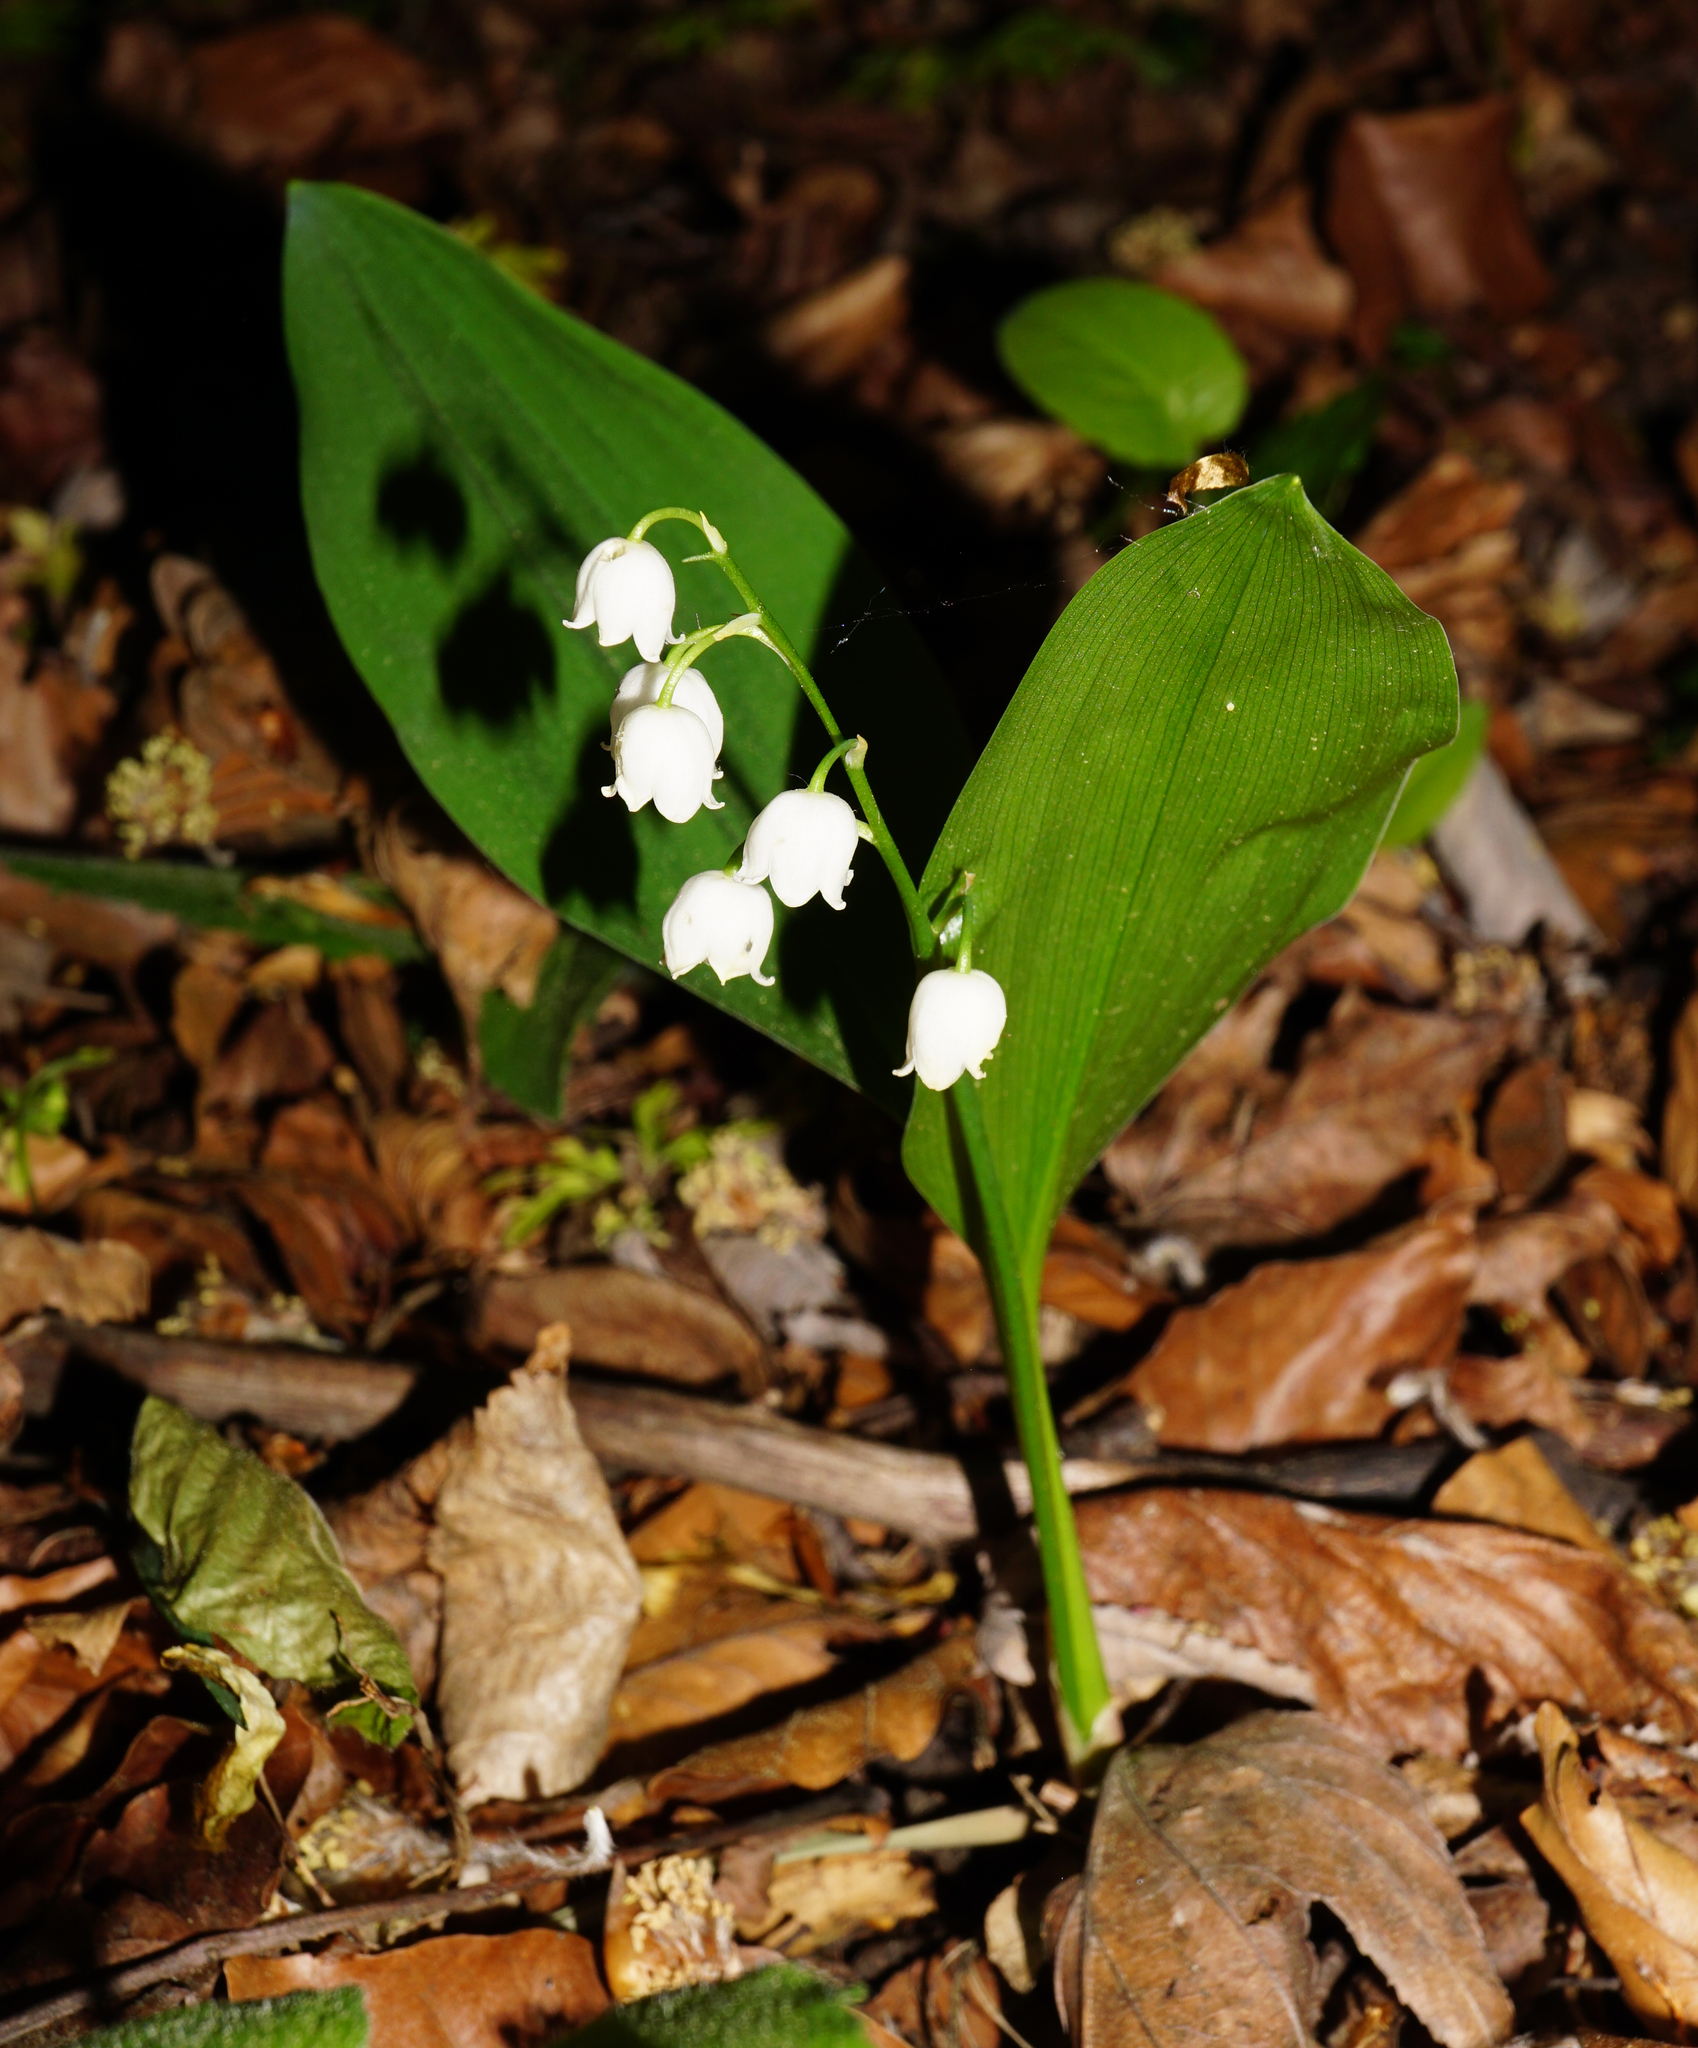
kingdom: Plantae
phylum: Tracheophyta
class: Liliopsida
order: Asparagales
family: Asparagaceae
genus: Convallaria
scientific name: Convallaria majalis
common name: Lily-of-the-valley
